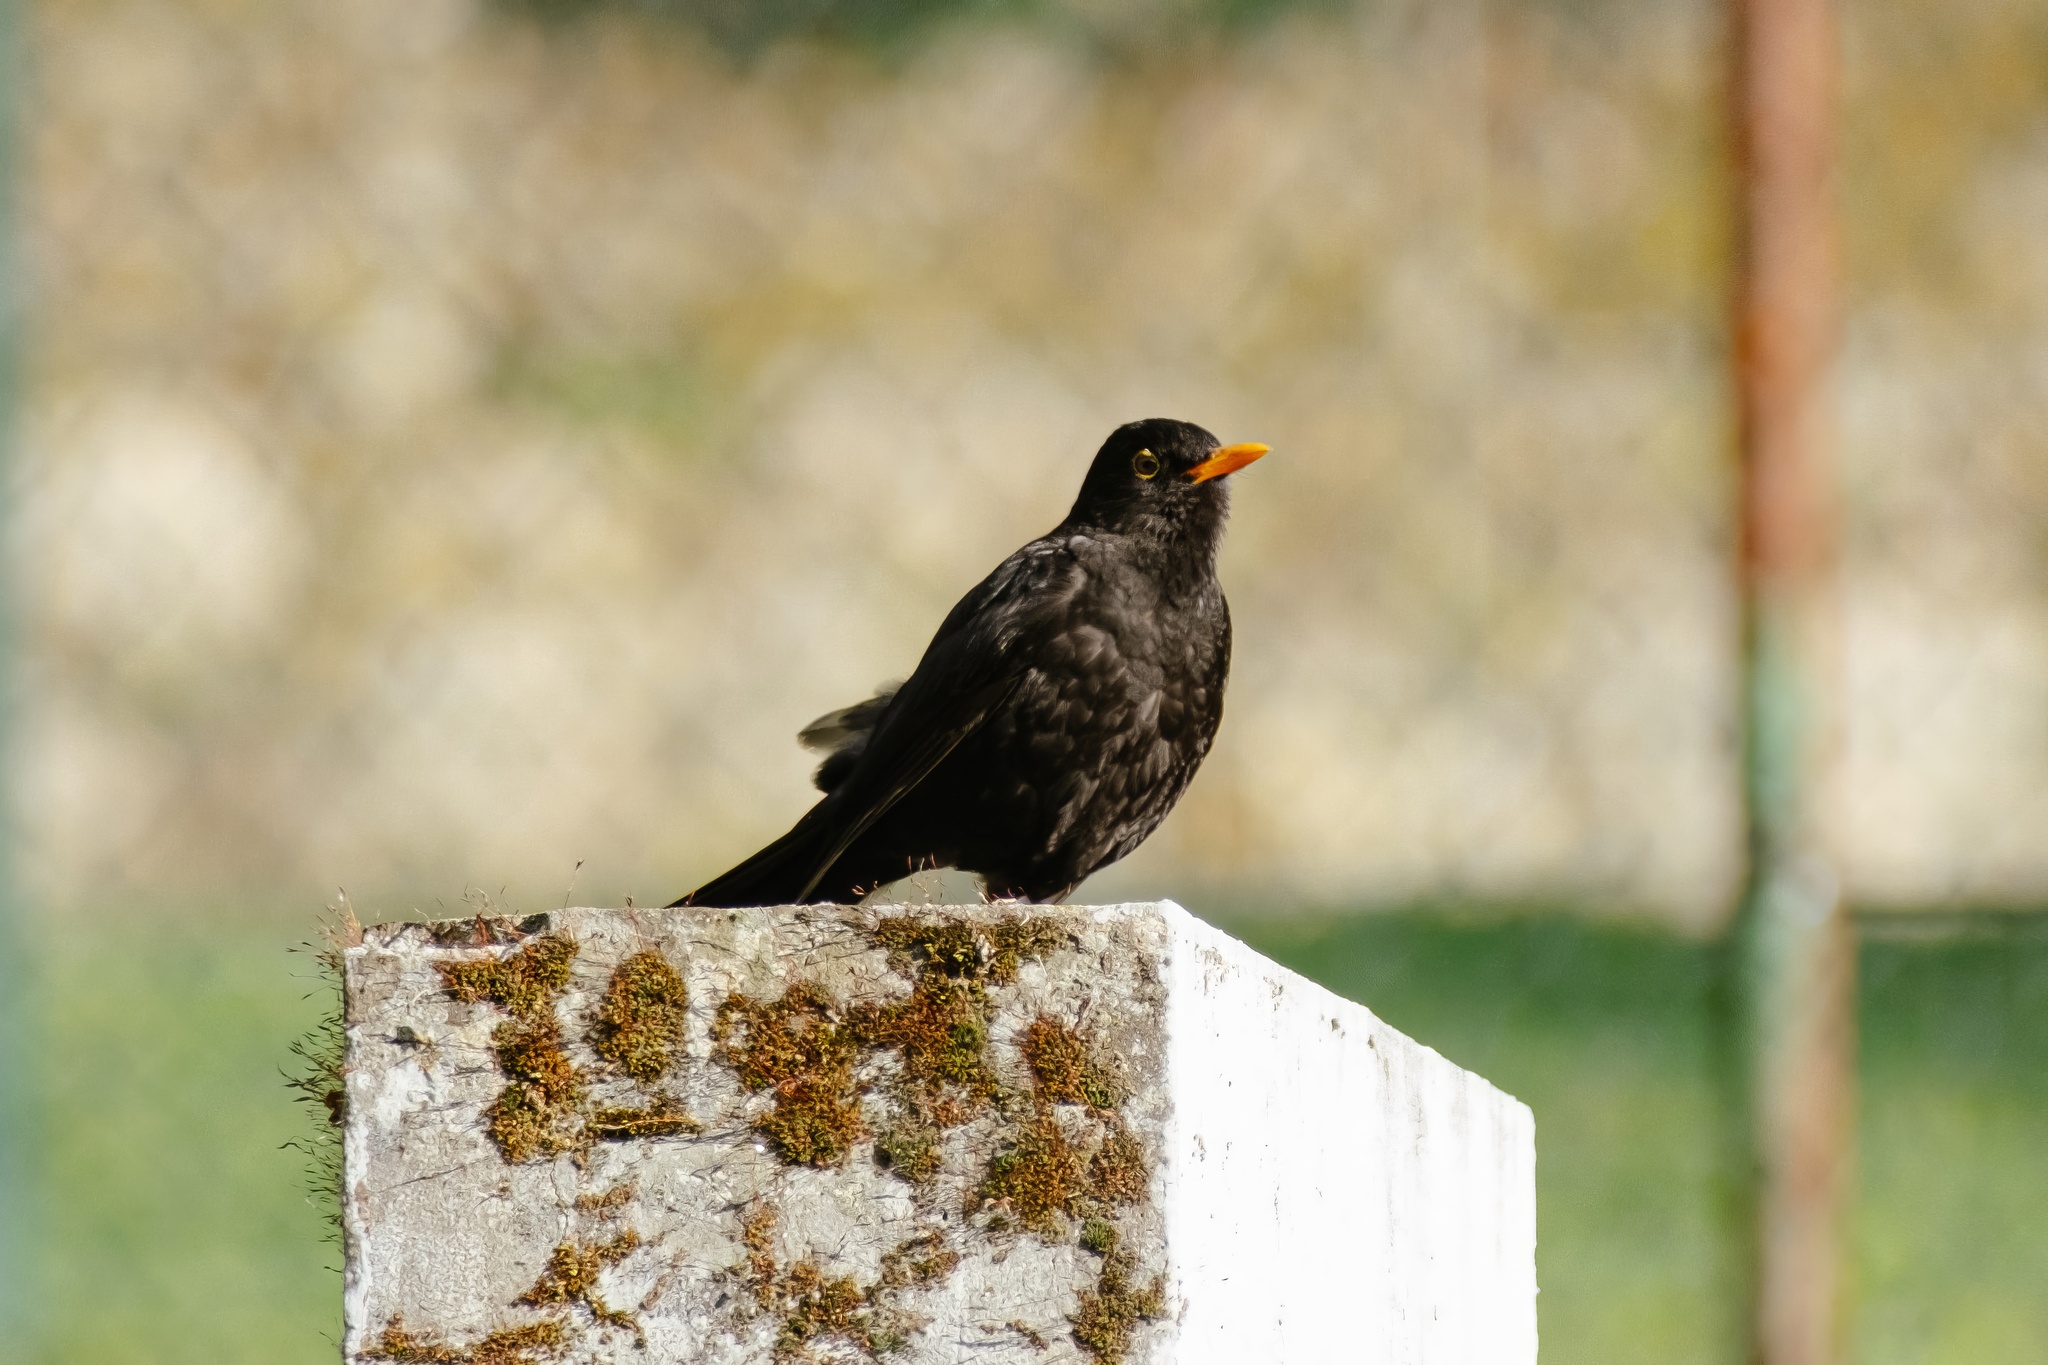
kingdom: Animalia
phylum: Chordata
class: Aves
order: Passeriformes
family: Turdidae
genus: Turdus
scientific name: Turdus merula
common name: Common blackbird
